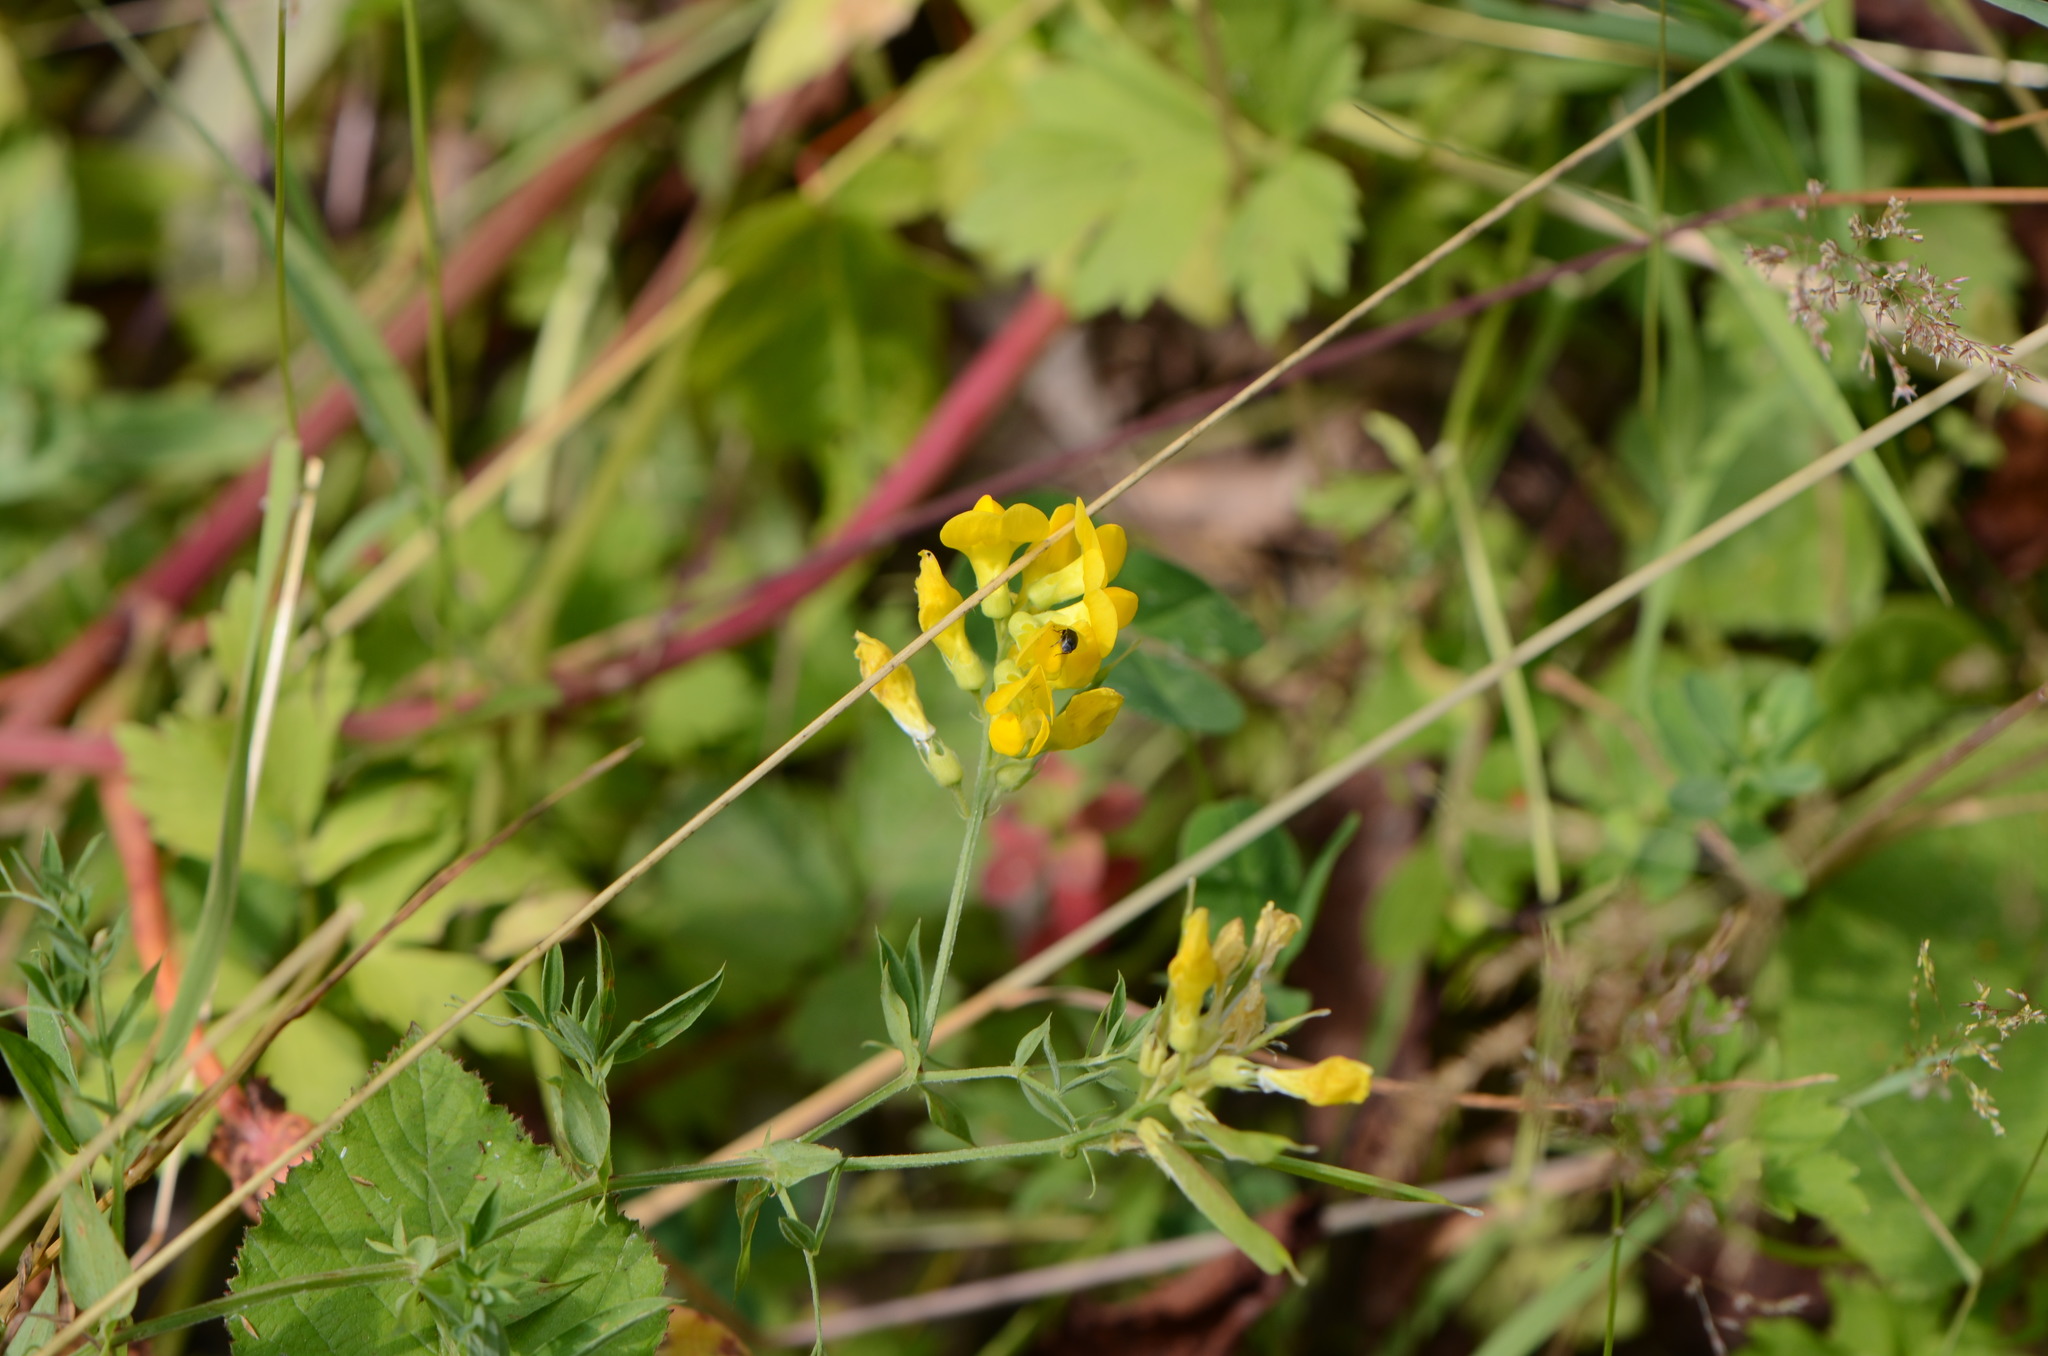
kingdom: Plantae
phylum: Tracheophyta
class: Magnoliopsida
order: Fabales
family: Fabaceae
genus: Lathyrus
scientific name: Lathyrus pratensis
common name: Meadow vetchling
